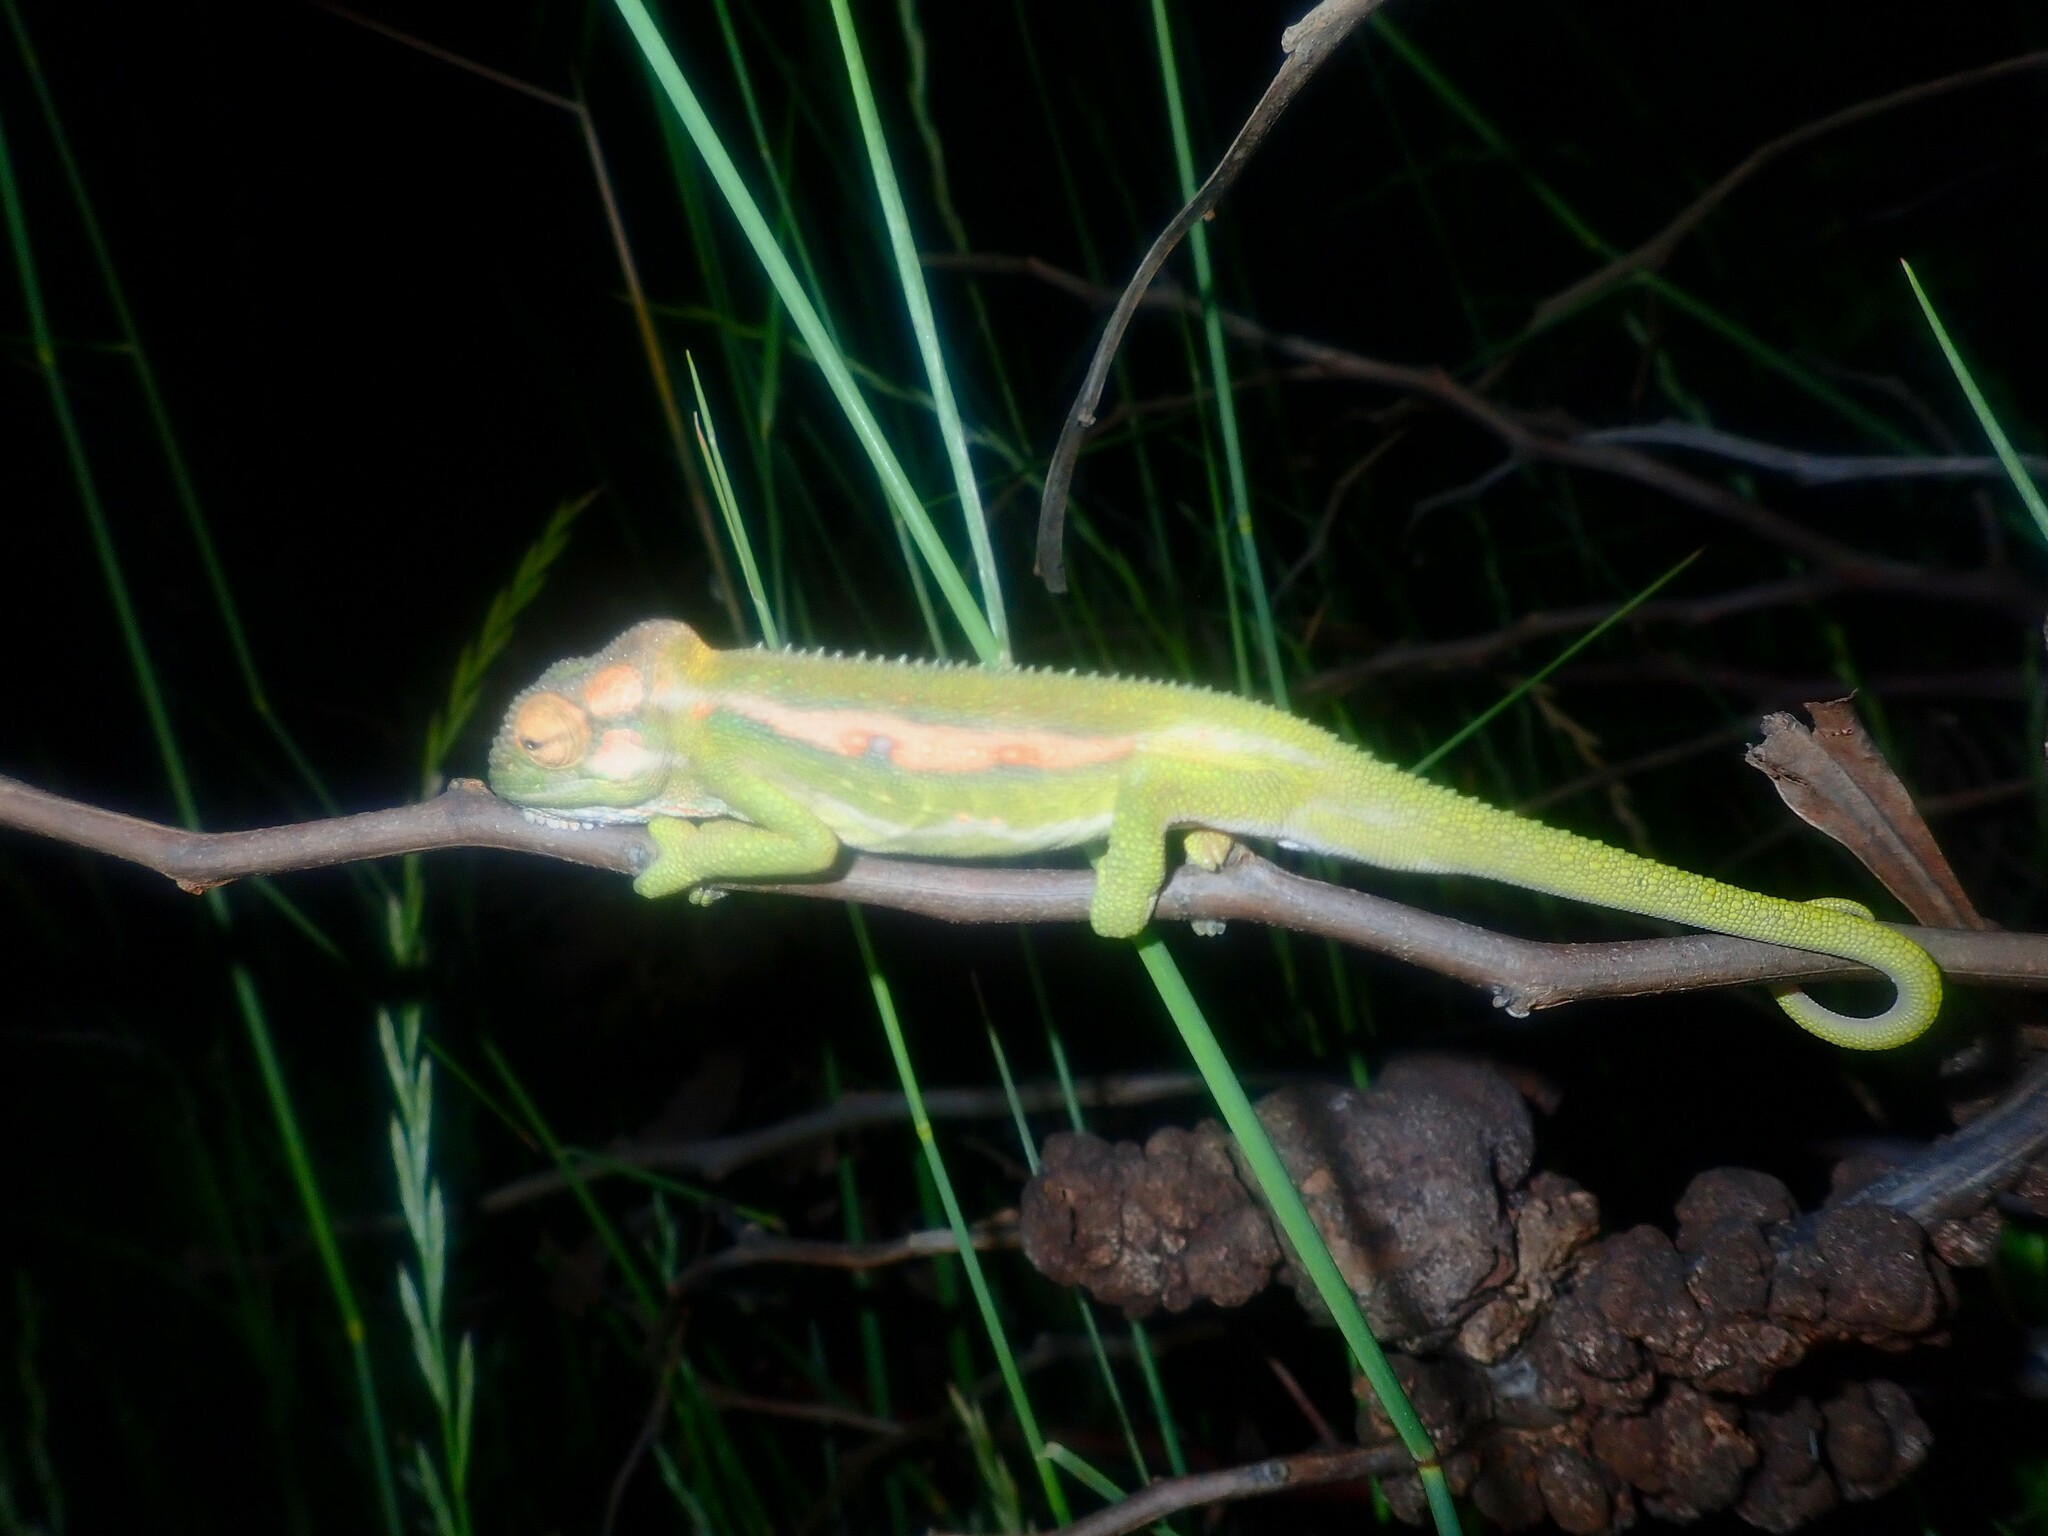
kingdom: Animalia
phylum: Chordata
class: Squamata
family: Chamaeleonidae
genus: Bradypodion
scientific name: Bradypodion pumilum
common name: Cape dwarf chameleon
